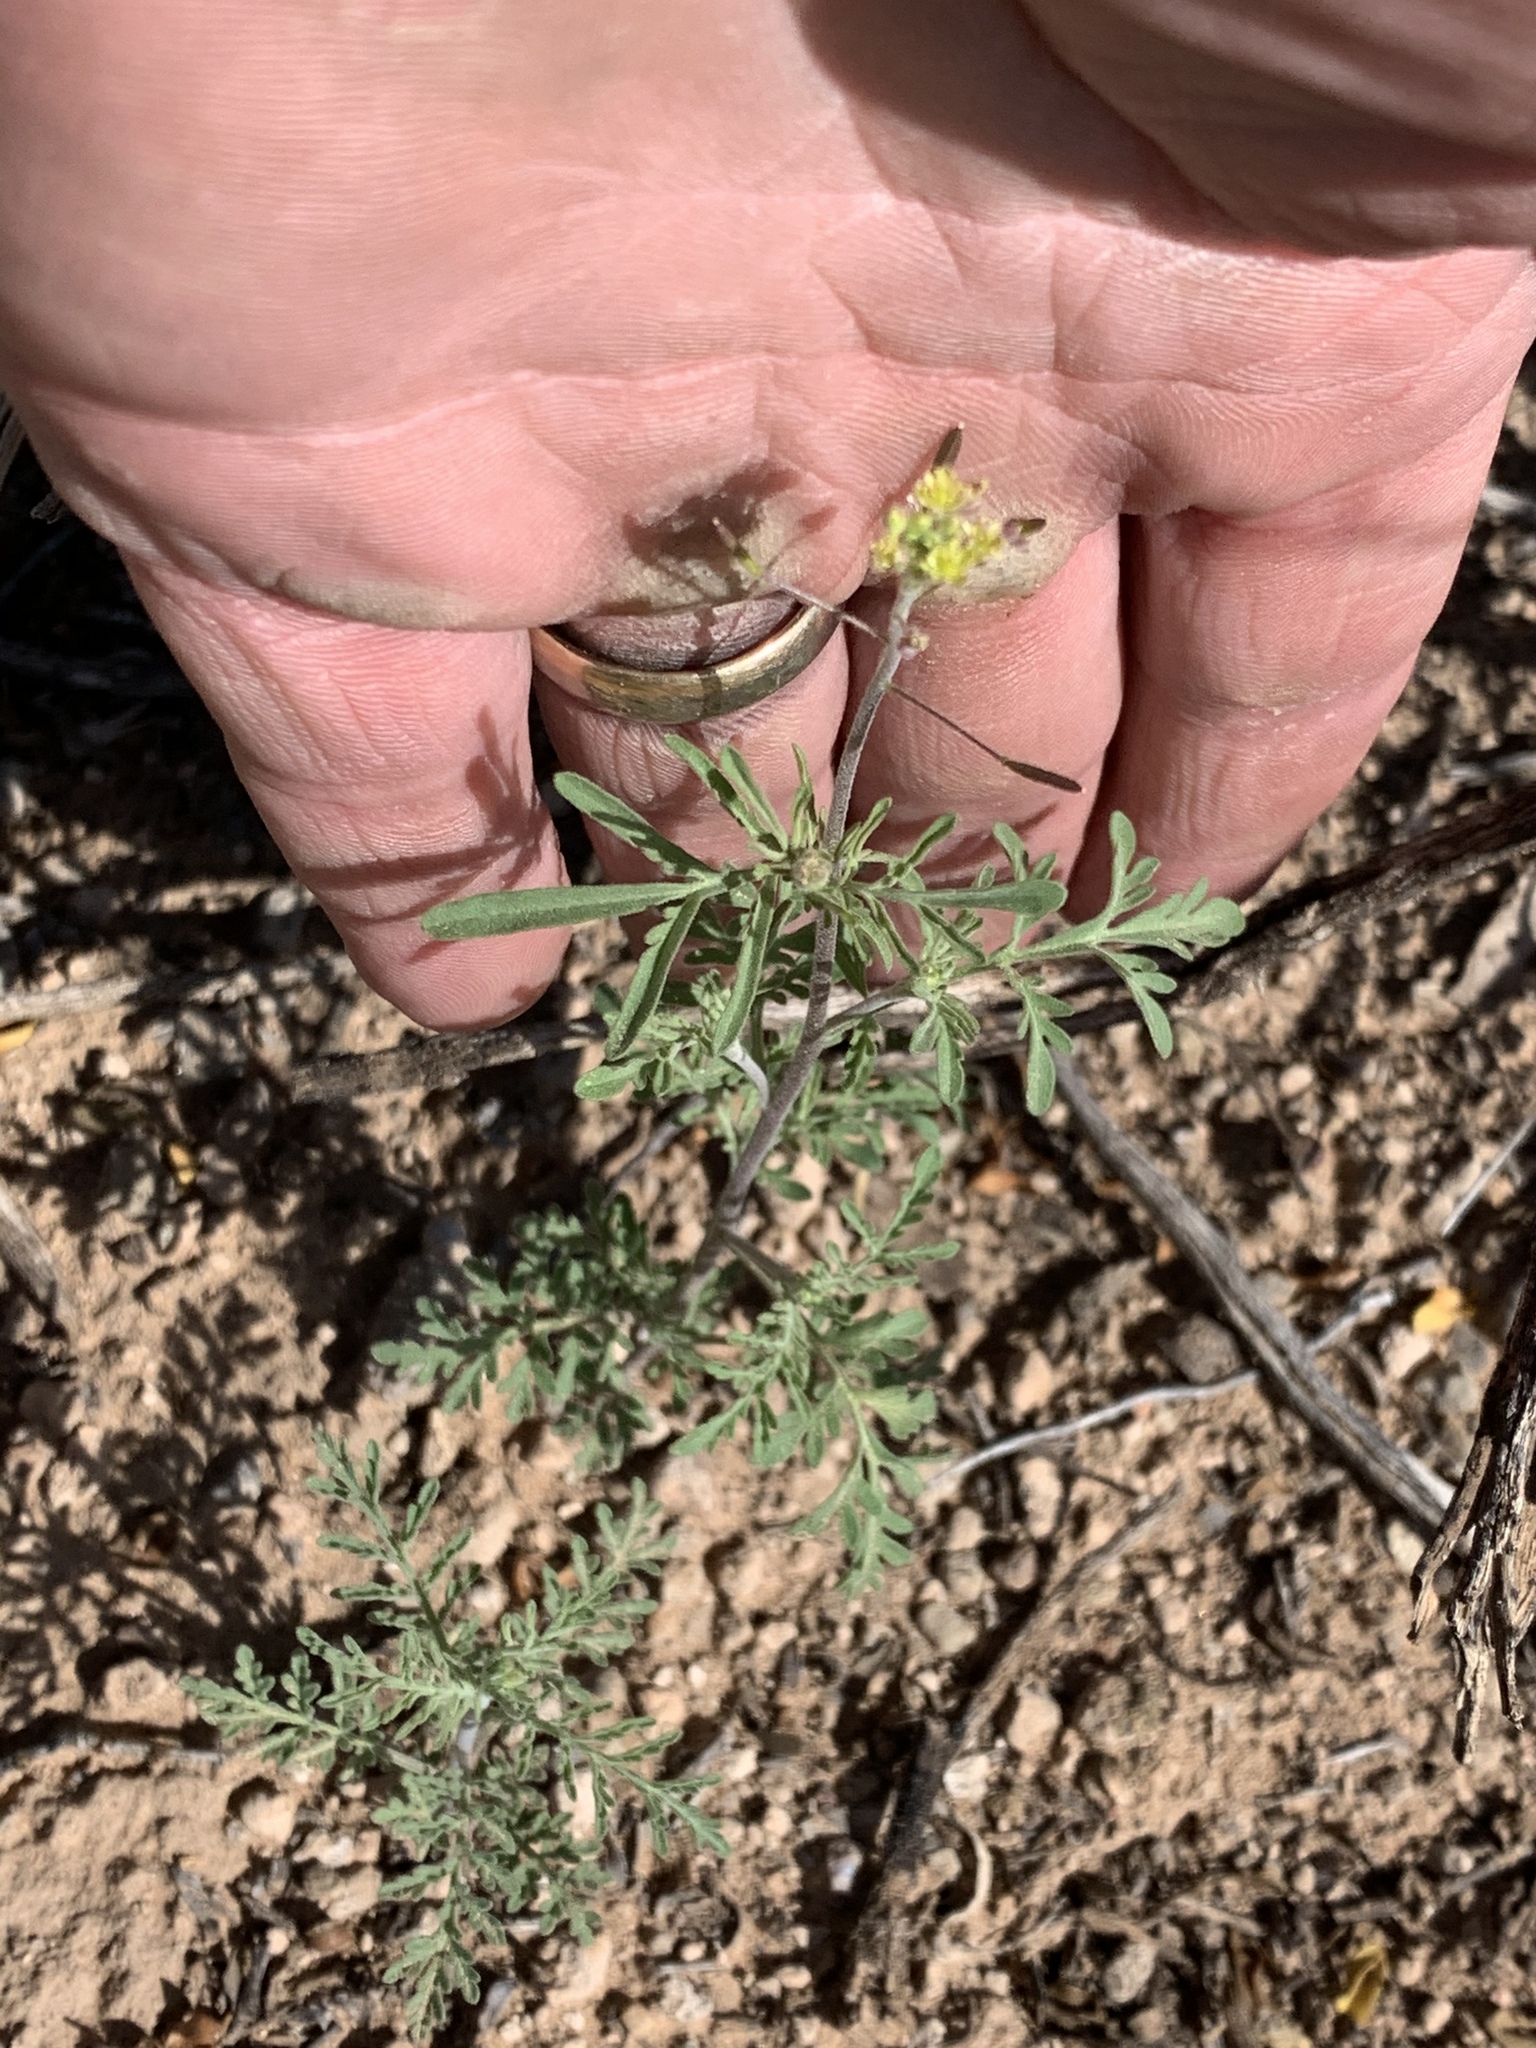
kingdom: Plantae
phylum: Tracheophyta
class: Magnoliopsida
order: Brassicales
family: Brassicaceae
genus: Descurainia
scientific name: Descurainia pinnata
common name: Western tansy mustard
